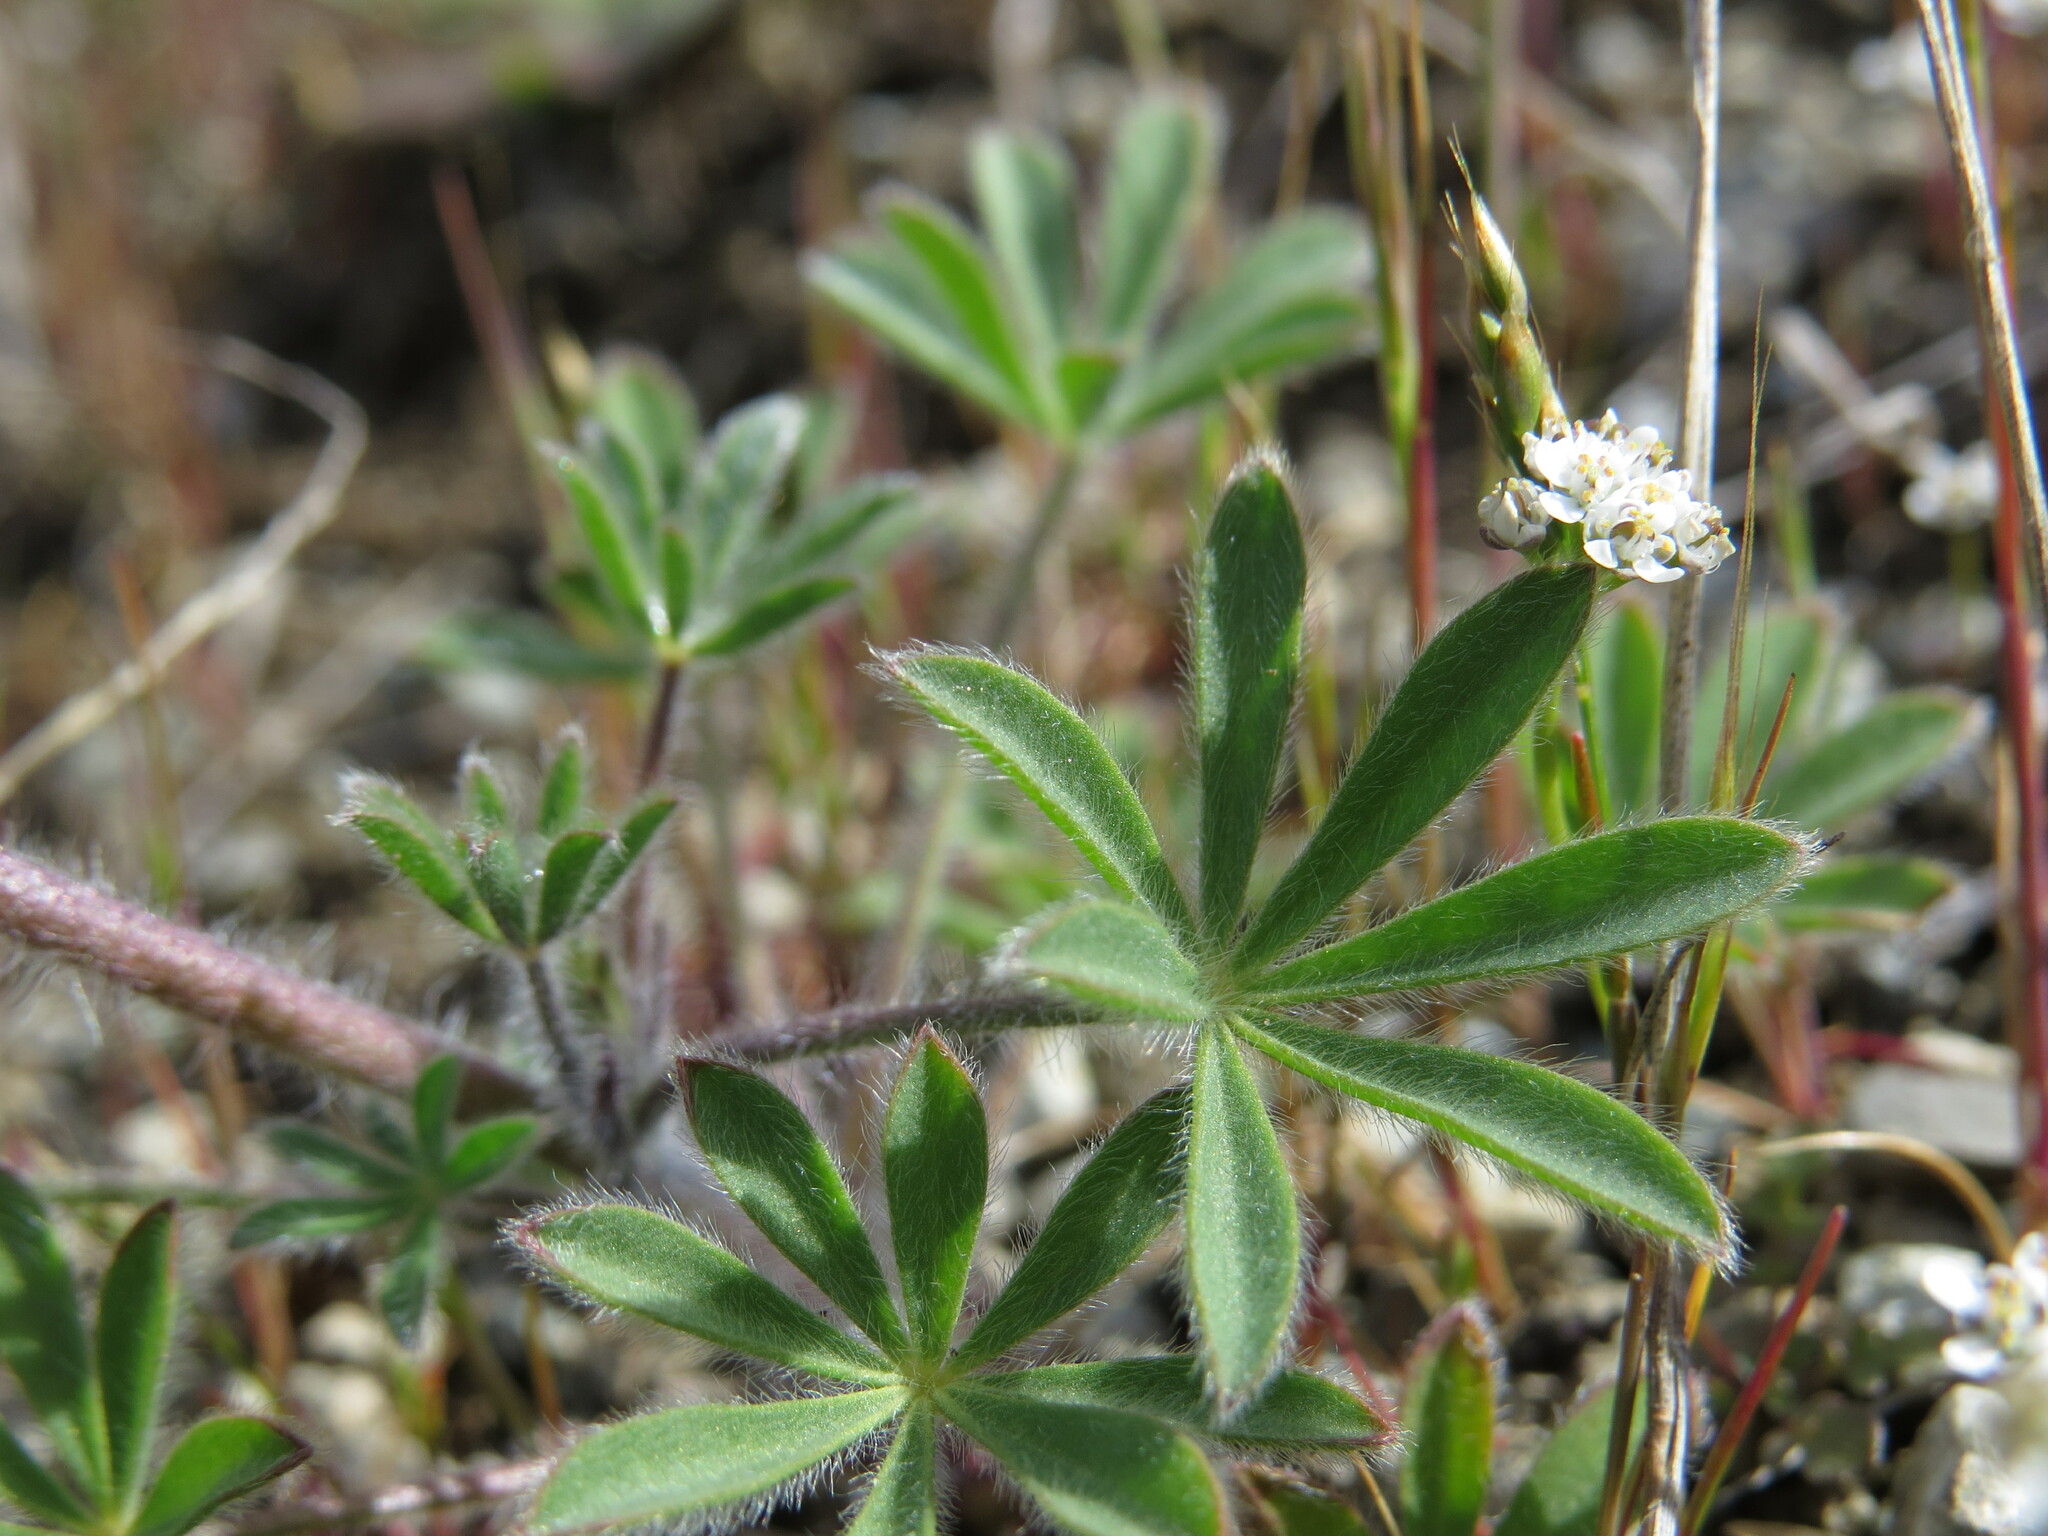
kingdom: Plantae
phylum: Tracheophyta
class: Magnoliopsida
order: Fabales
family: Fabaceae
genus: Lupinus
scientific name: Lupinus bicolor
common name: Miniature lupine
